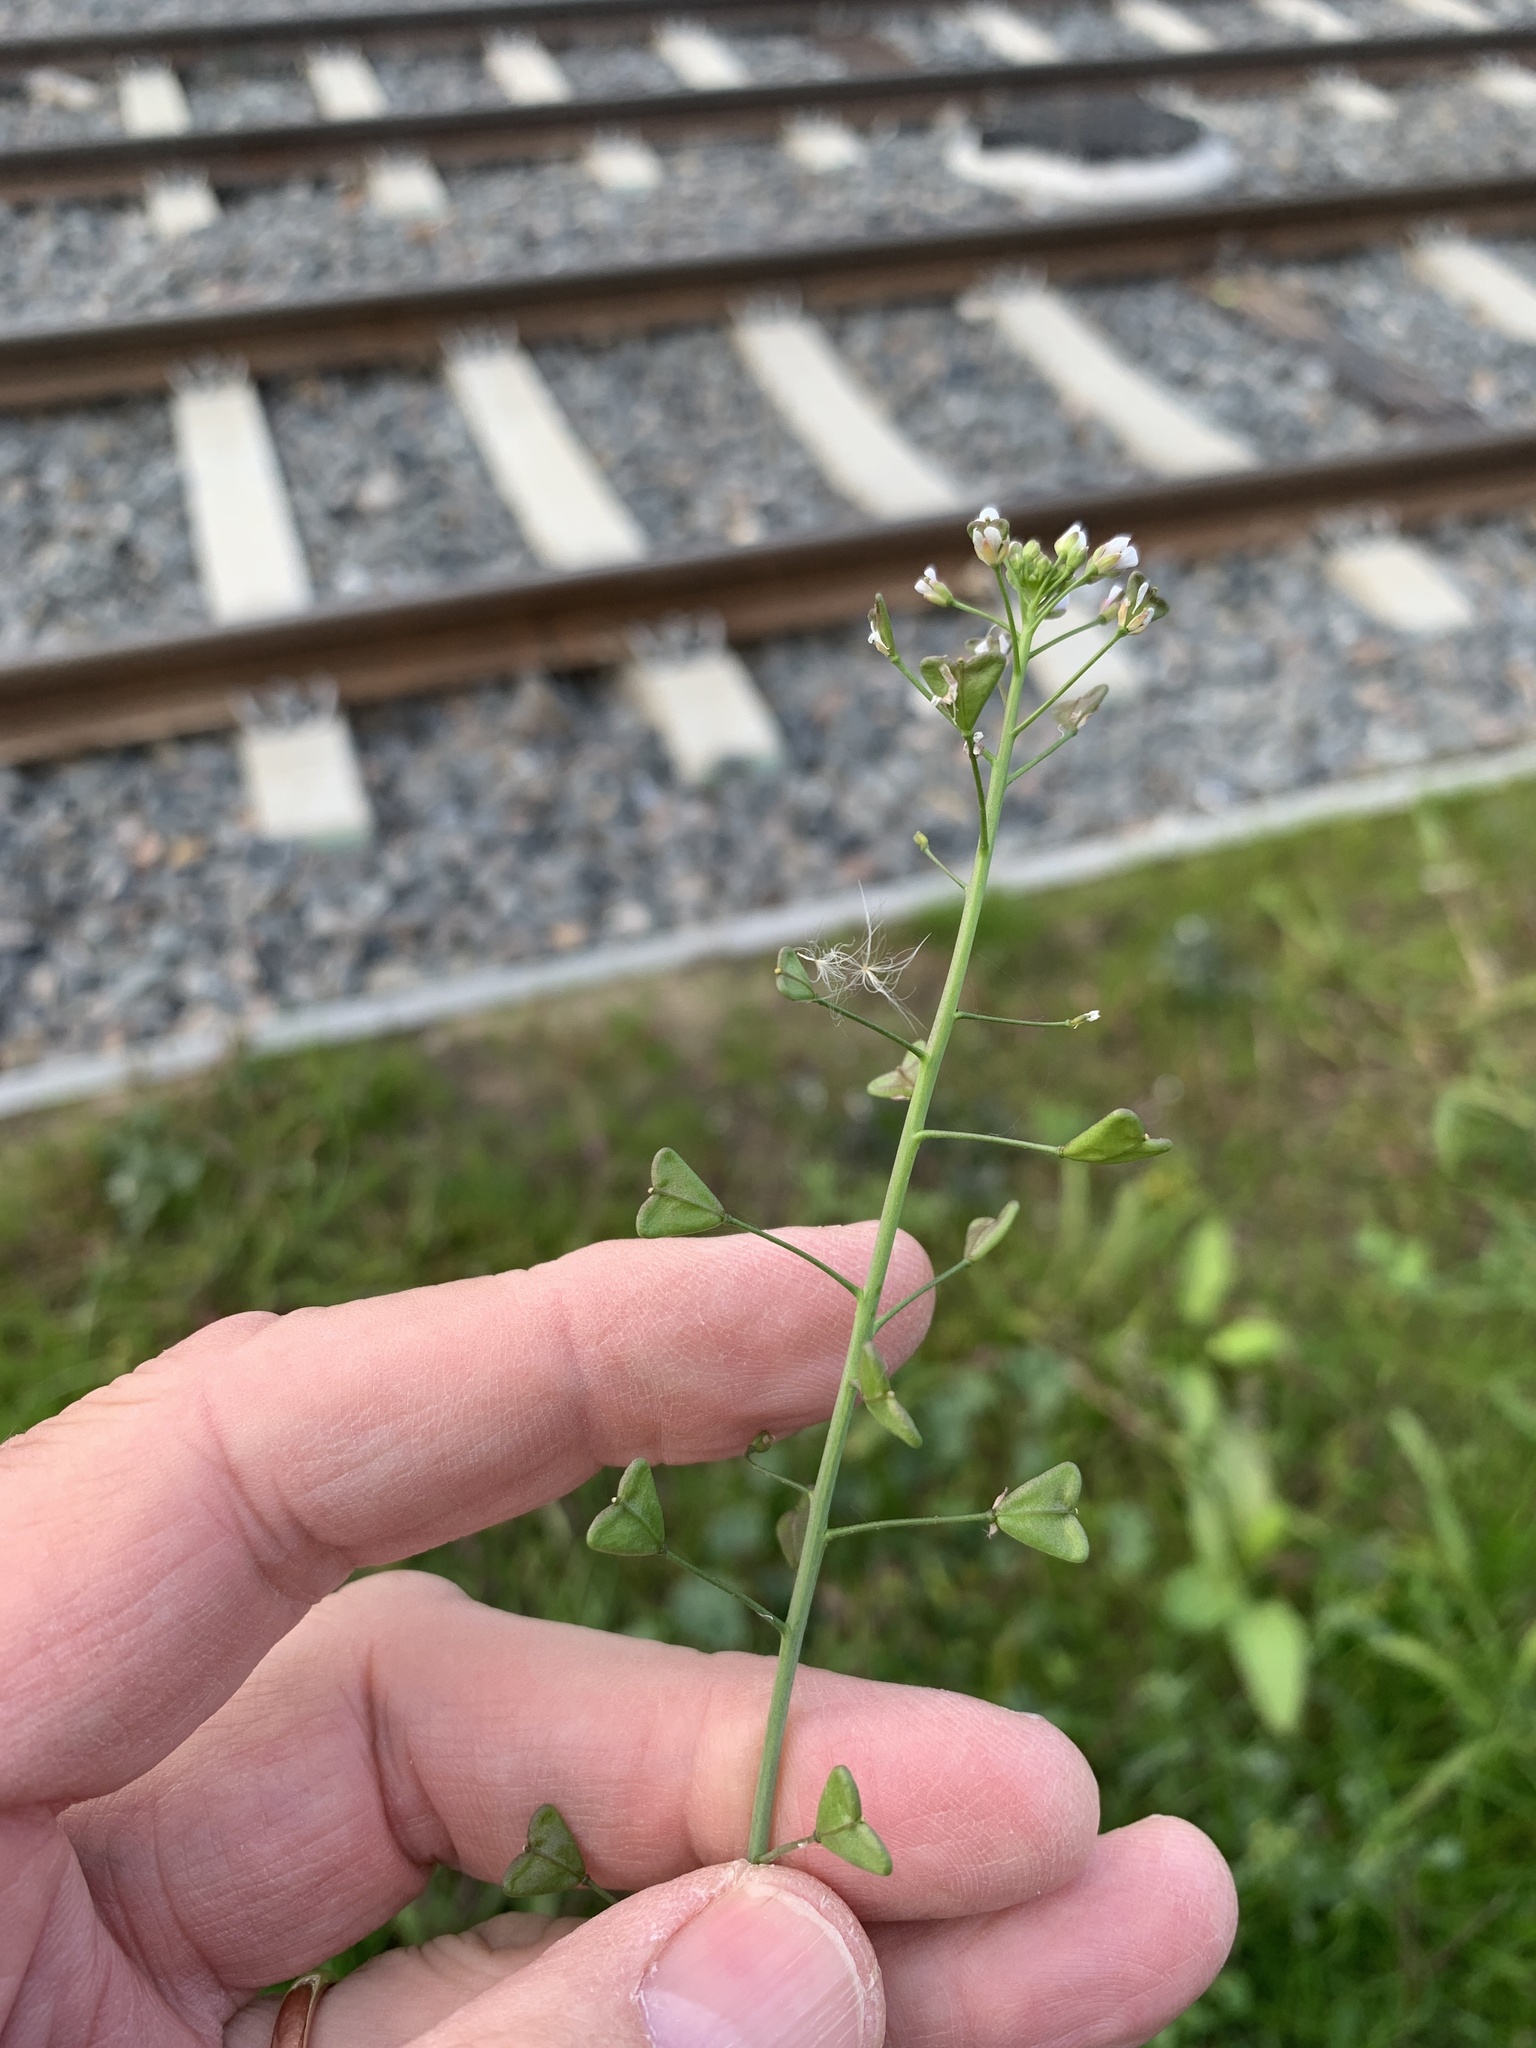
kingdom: Plantae
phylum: Tracheophyta
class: Magnoliopsida
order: Brassicales
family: Brassicaceae
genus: Capsella
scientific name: Capsella bursa-pastoris
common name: Shepherd's purse
